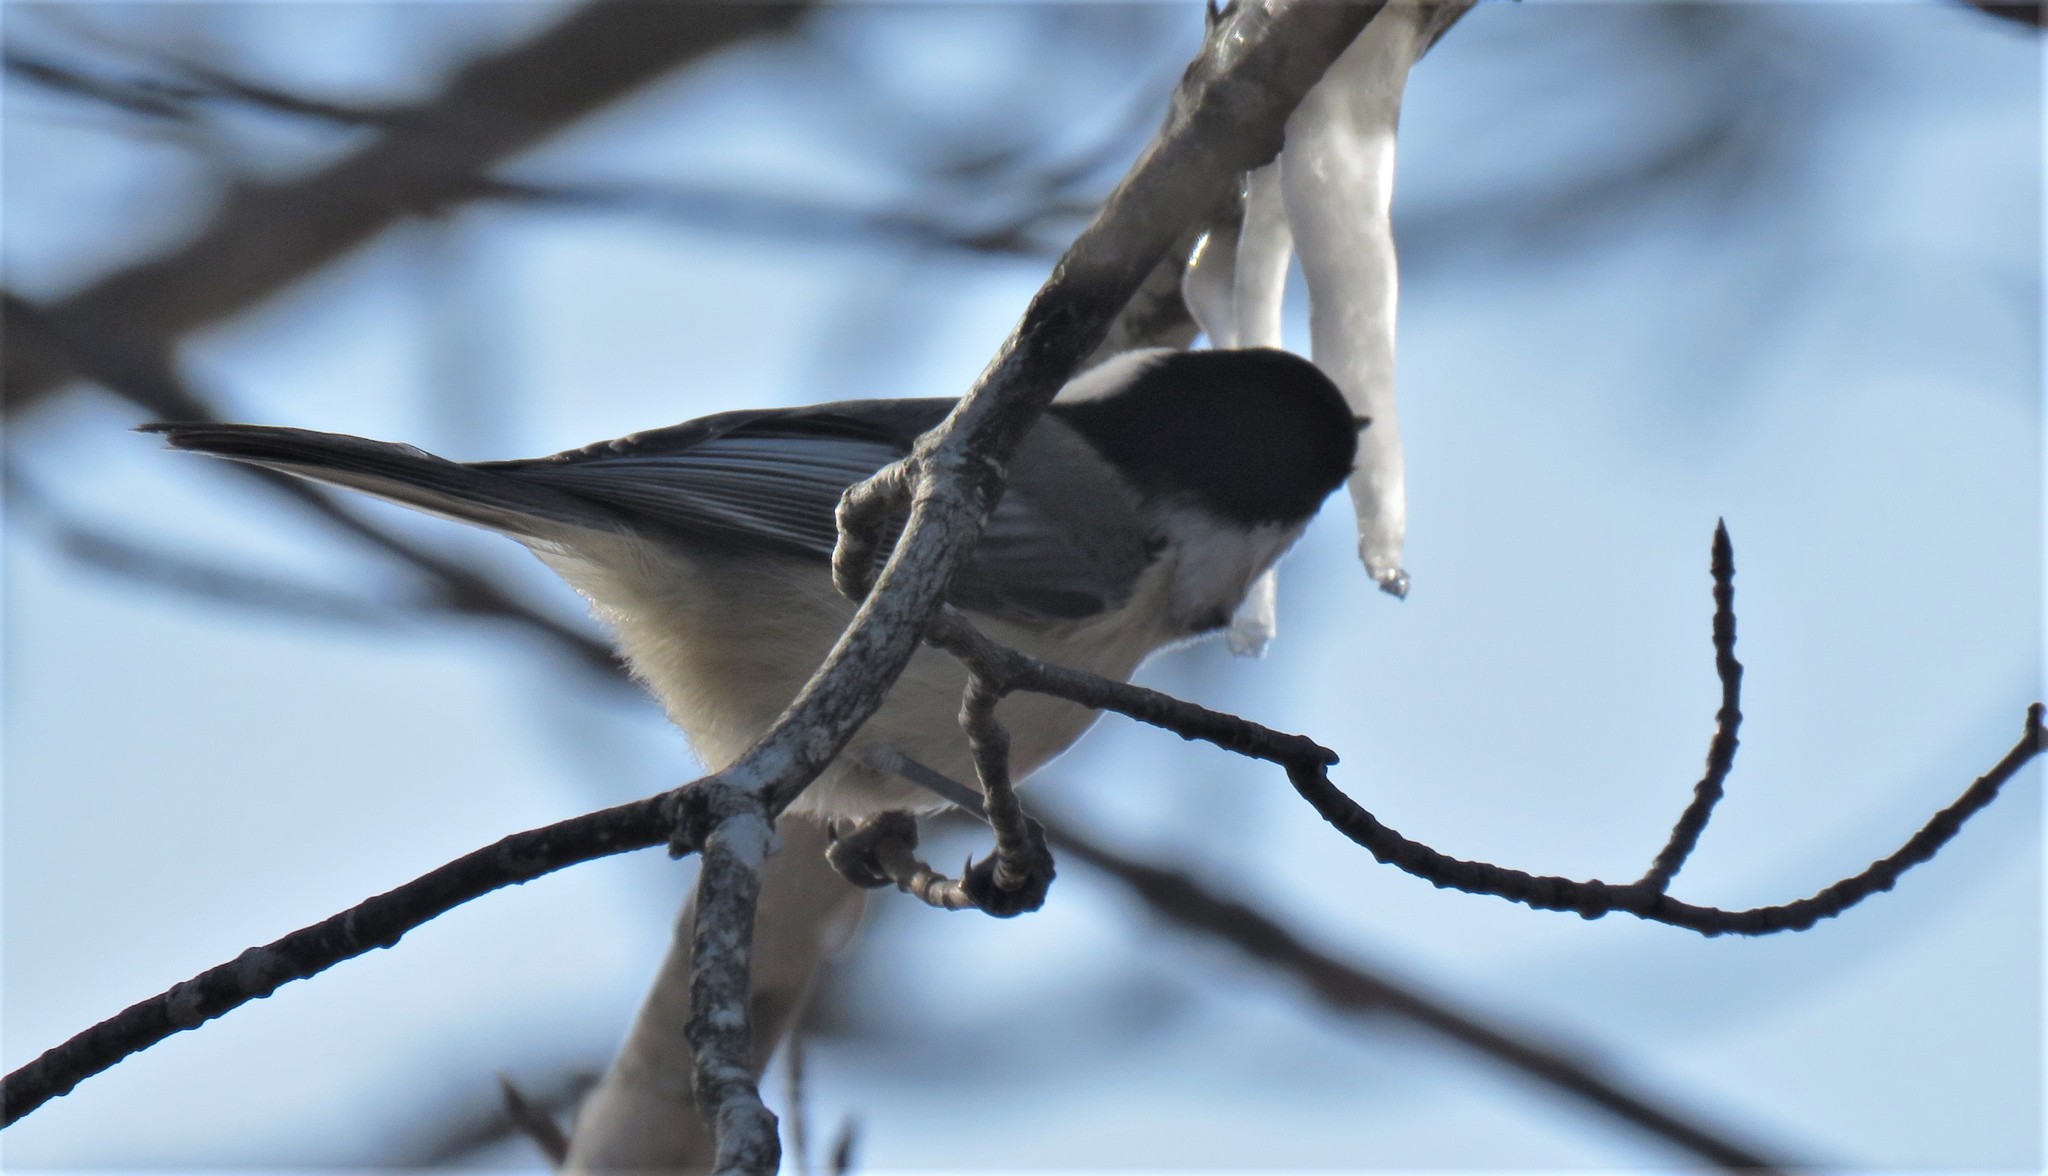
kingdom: Animalia
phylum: Chordata
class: Aves
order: Passeriformes
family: Paridae
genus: Poecile
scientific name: Poecile atricapillus
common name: Black-capped chickadee
